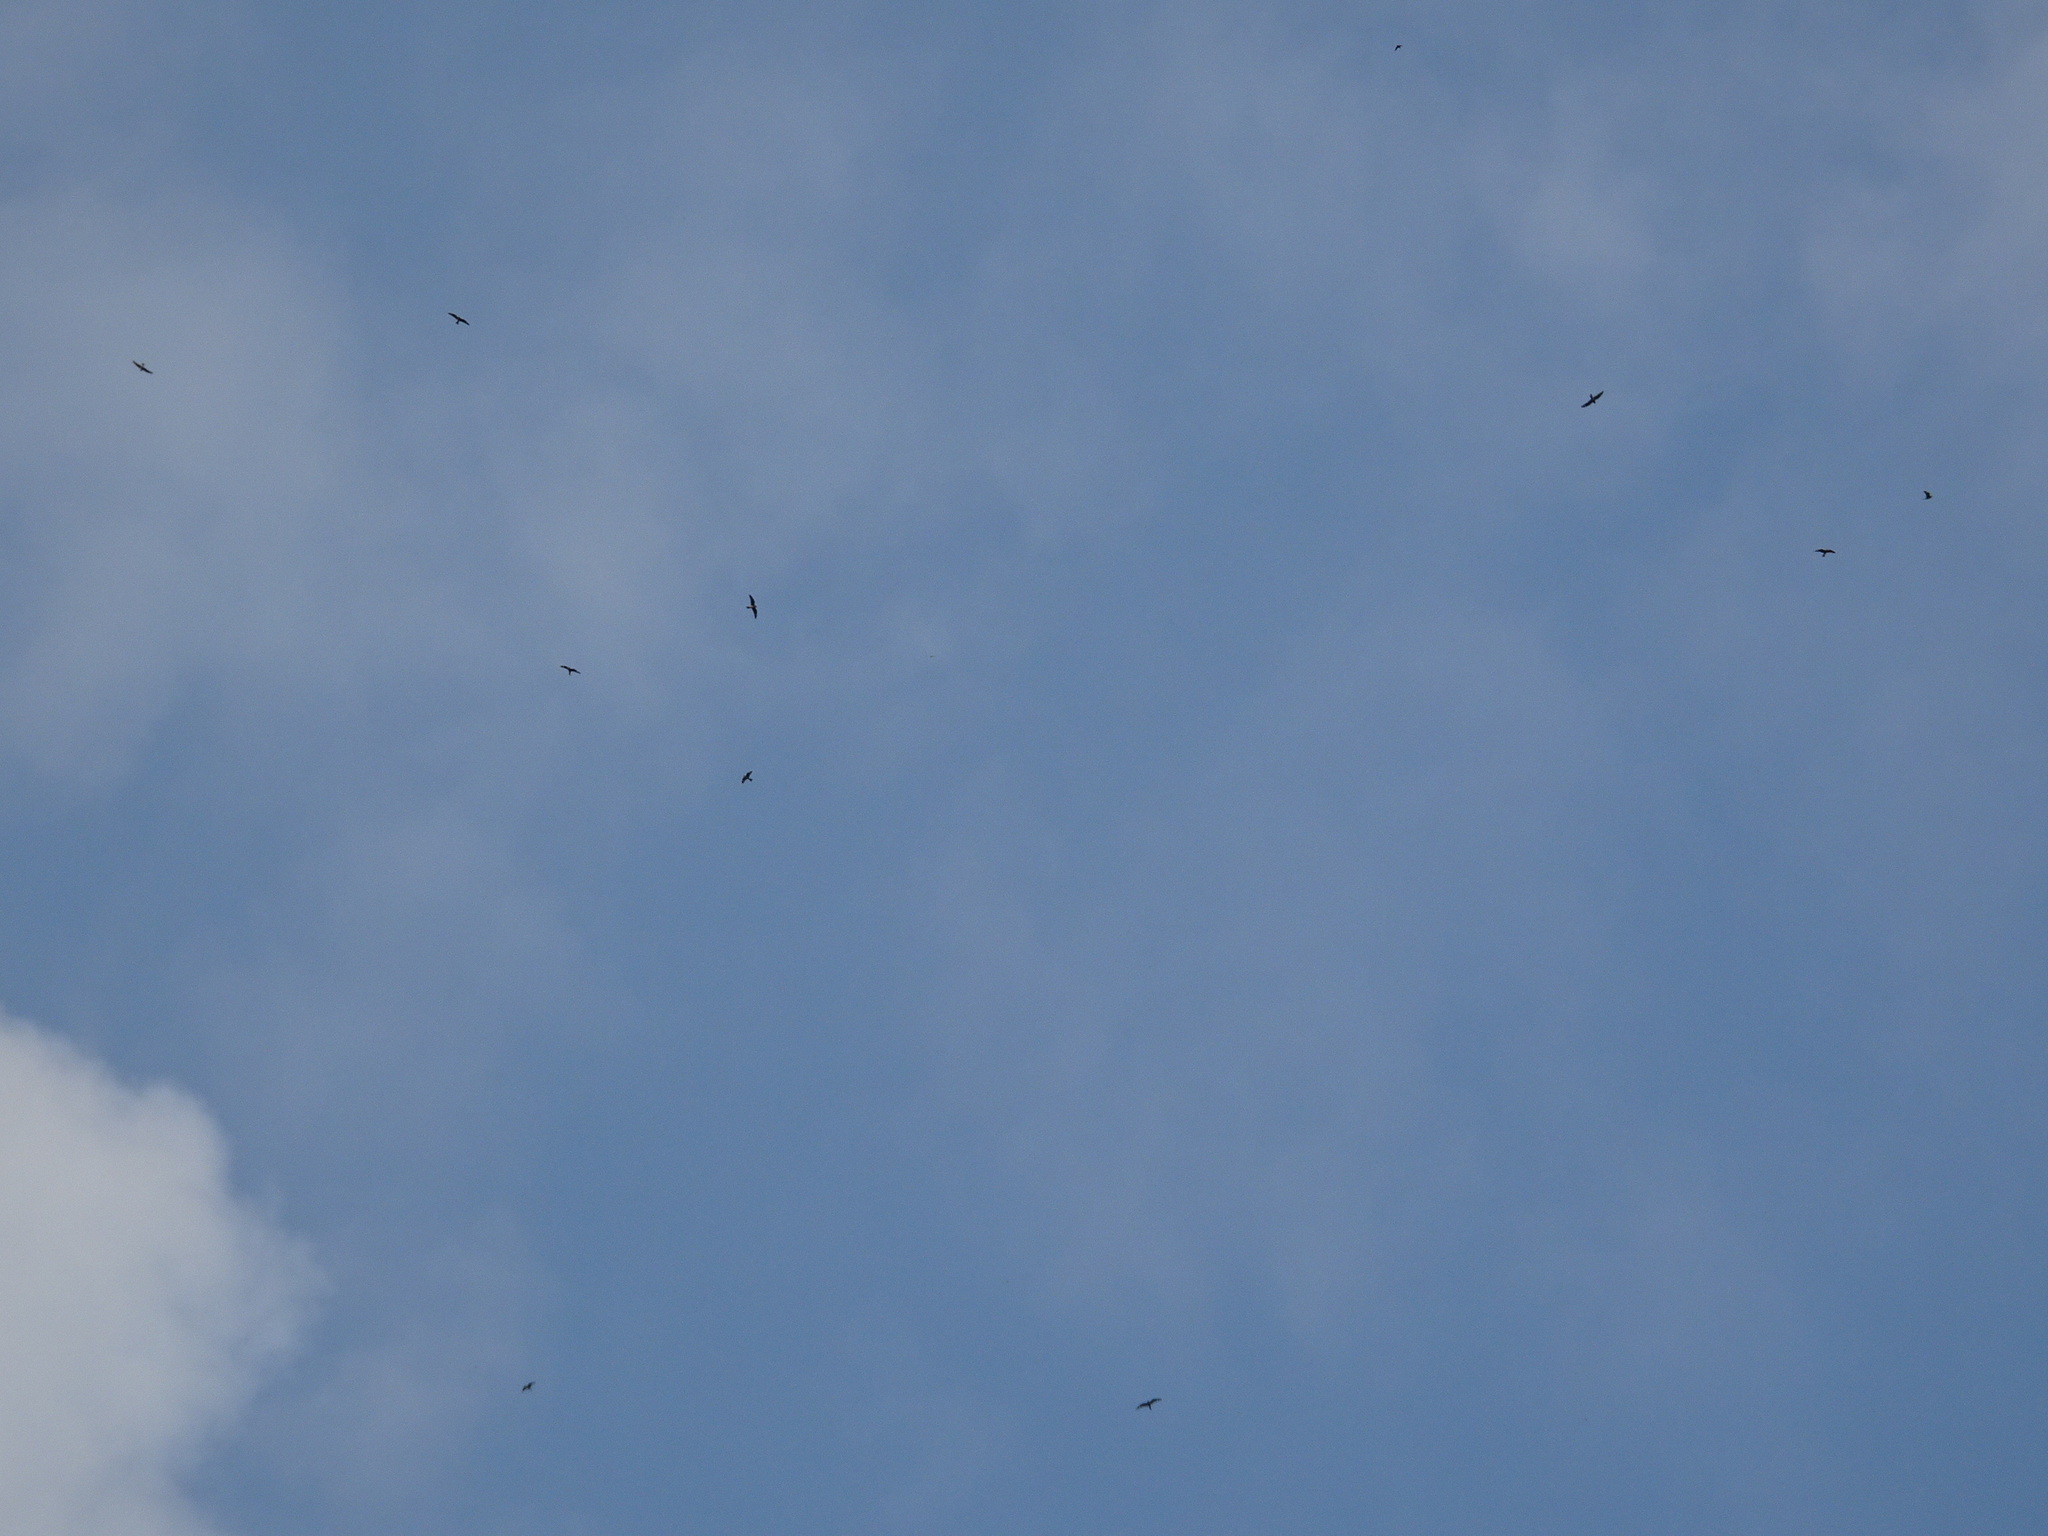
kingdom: Animalia
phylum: Chordata
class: Aves
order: Caprimulgiformes
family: Caprimulgidae
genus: Chordeiles
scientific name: Chordeiles minor
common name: Common nighthawk
